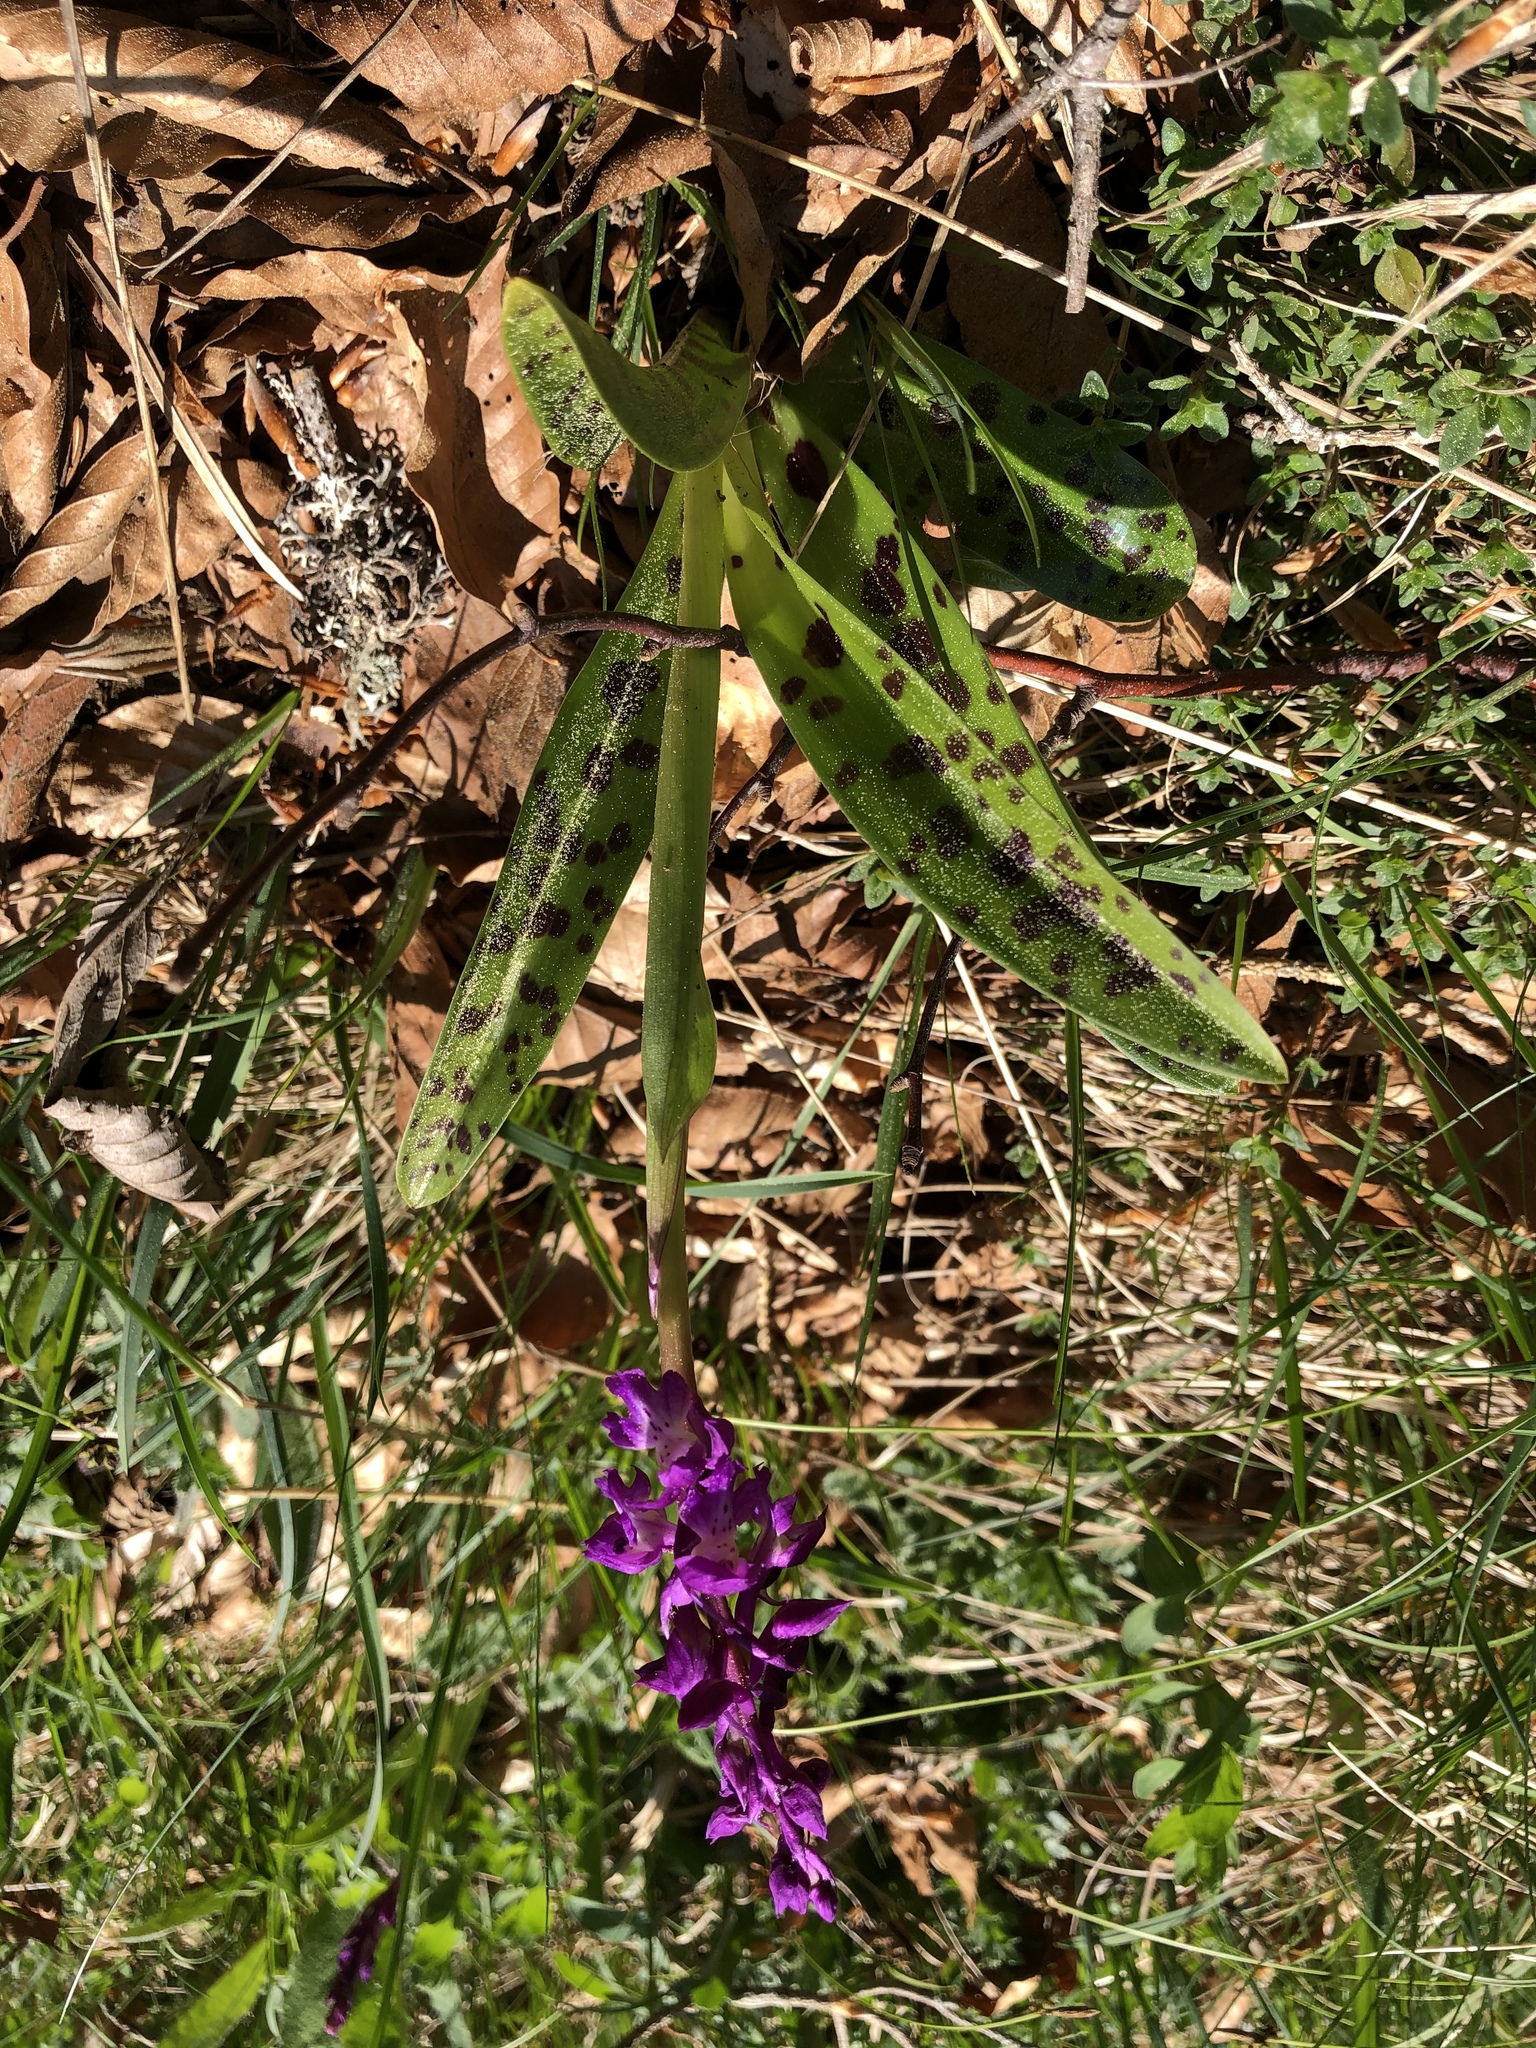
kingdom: Plantae
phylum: Tracheophyta
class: Liliopsida
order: Asparagales
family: Orchidaceae
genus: Orchis
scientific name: Orchis mascula
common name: Early-purple orchid
